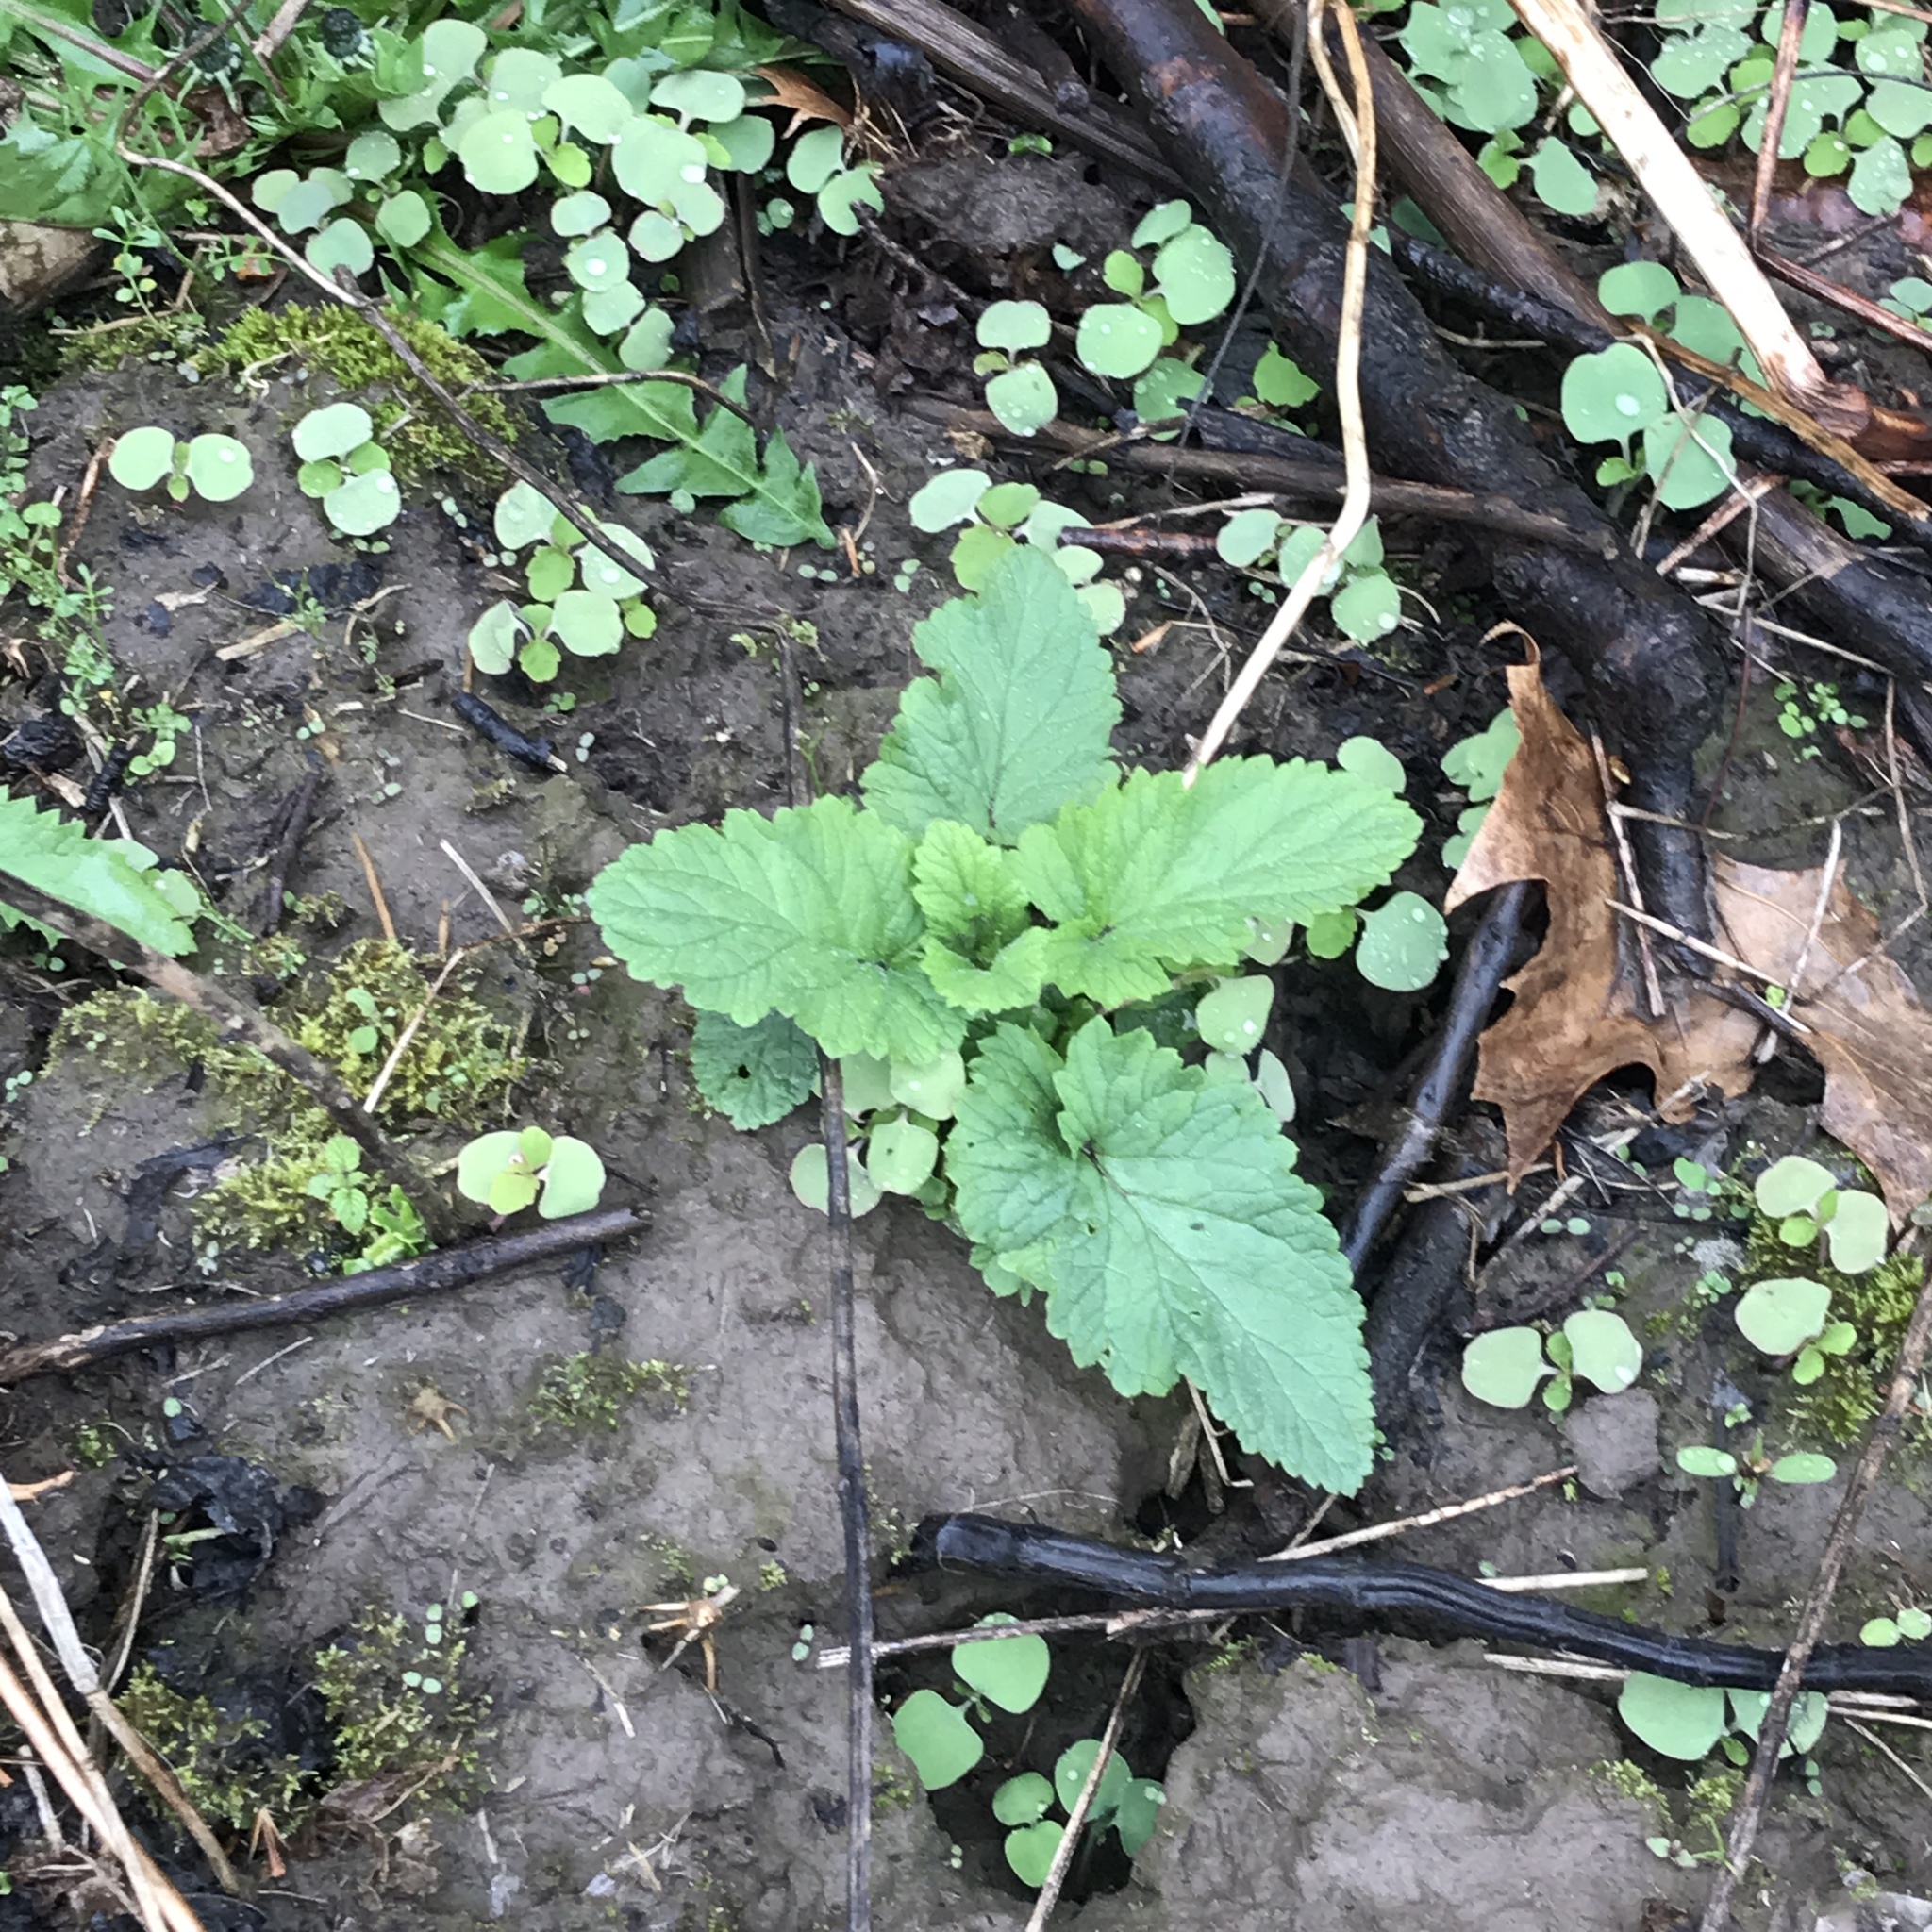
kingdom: Plantae
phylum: Tracheophyta
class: Magnoliopsida
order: Lamiales
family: Lamiaceae
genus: Nepeta
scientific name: Nepeta cataria
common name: Catnip
